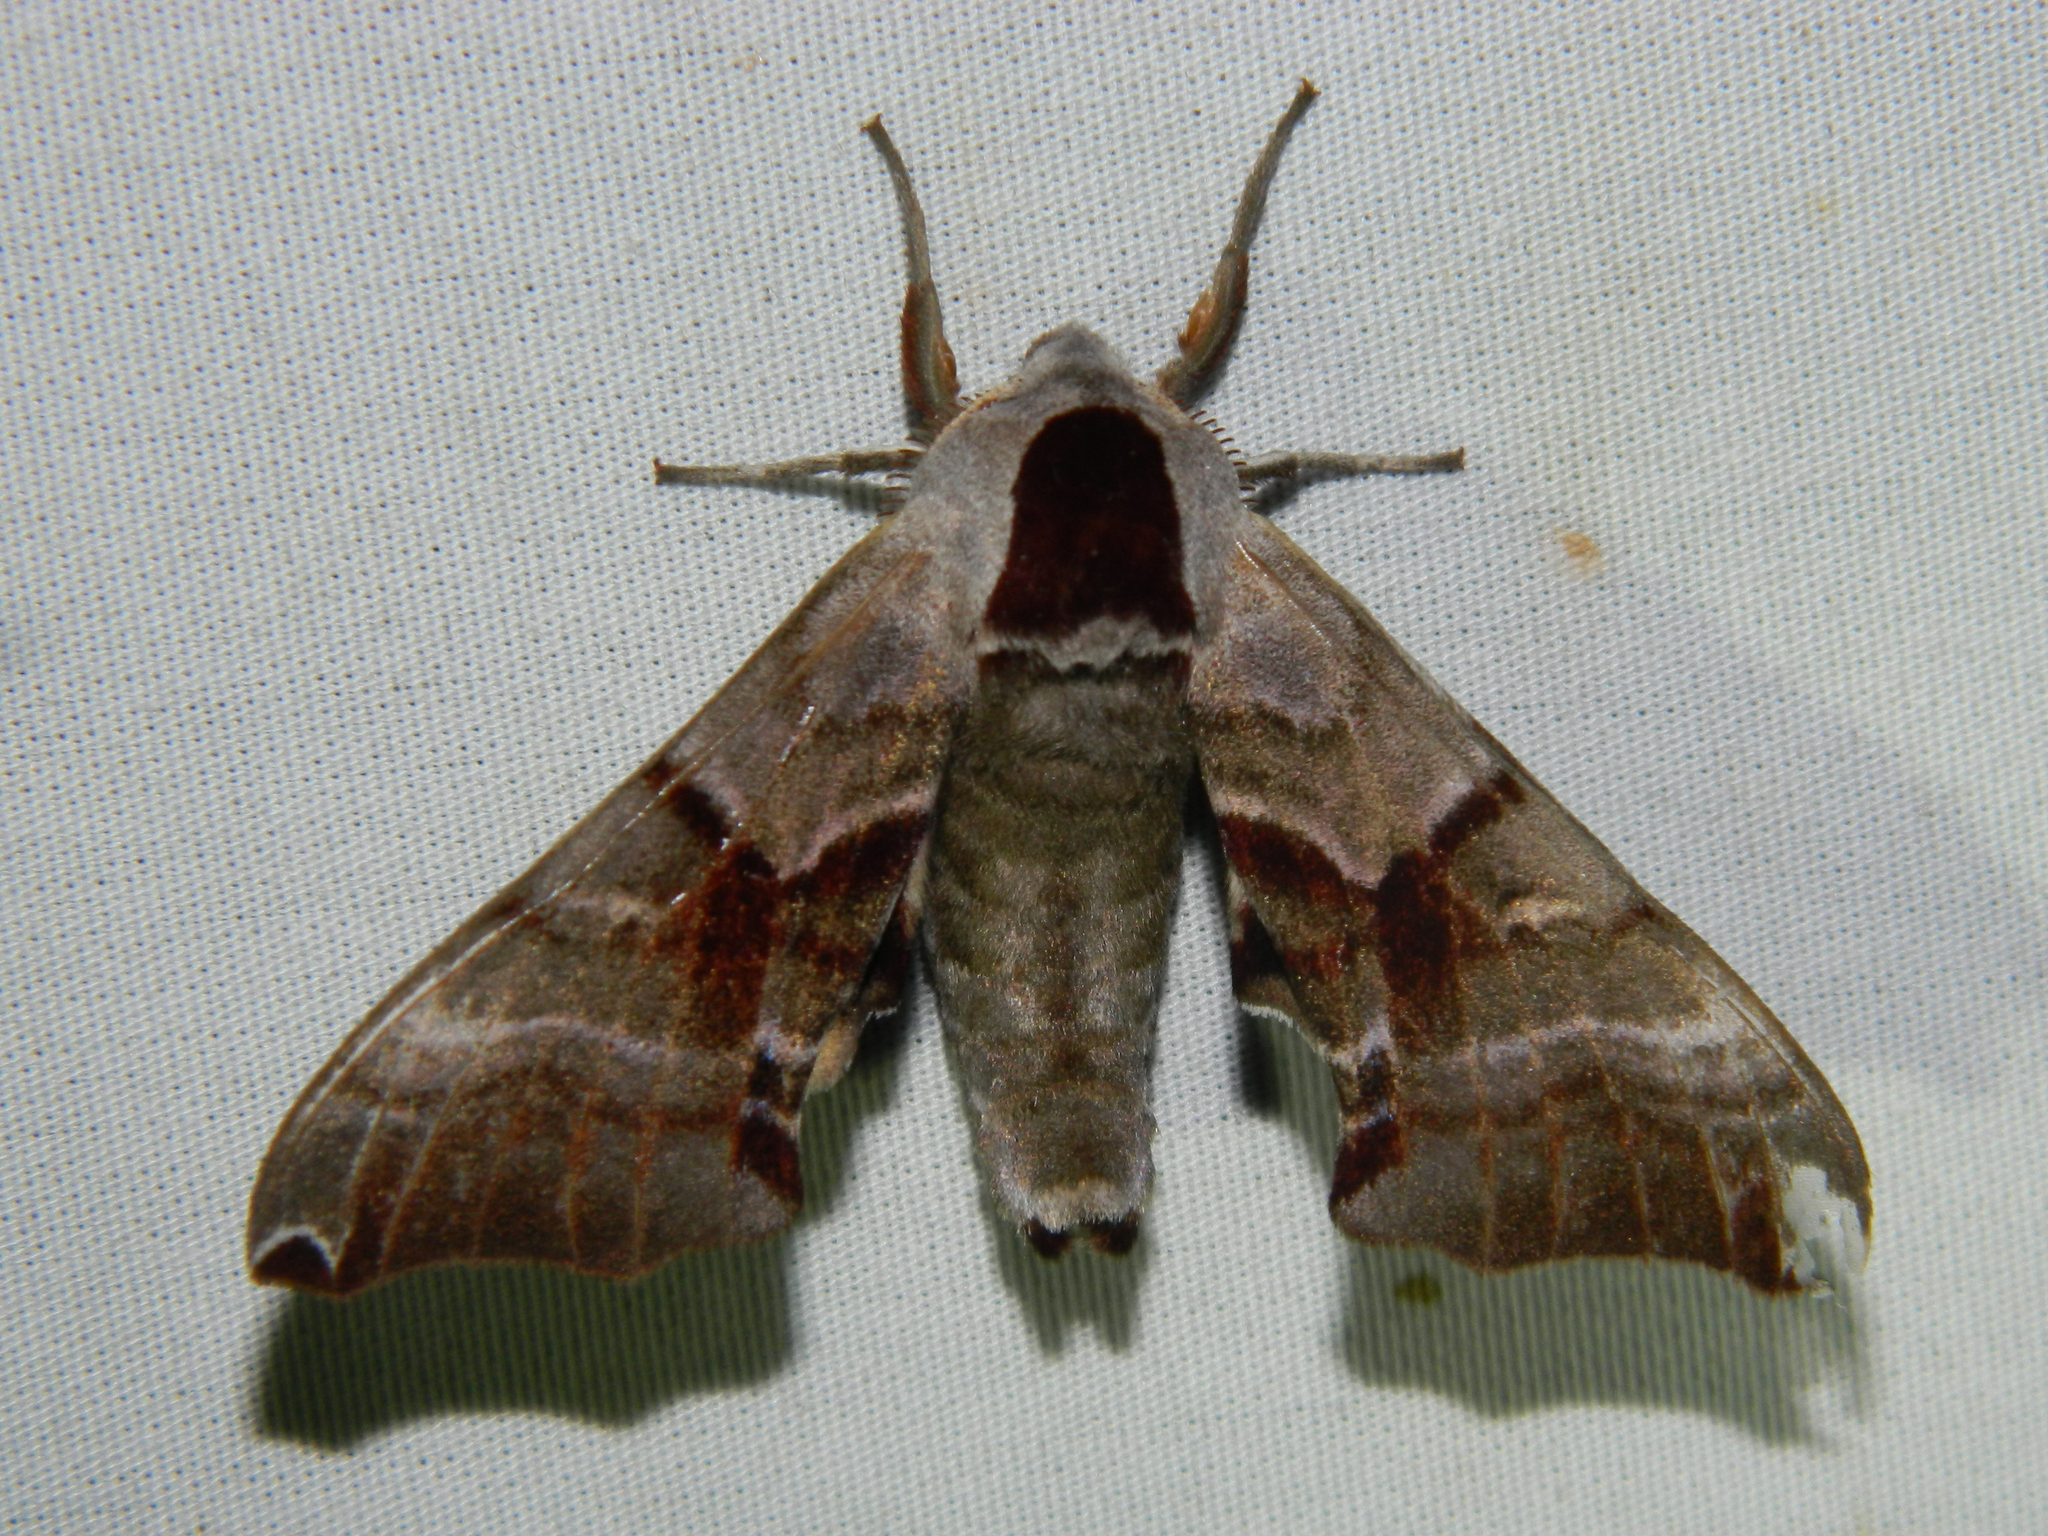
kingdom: Animalia
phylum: Arthropoda
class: Insecta
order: Lepidoptera
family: Sphingidae
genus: Smerinthus
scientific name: Smerinthus jamaicensis
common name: Twin spotted sphinx
